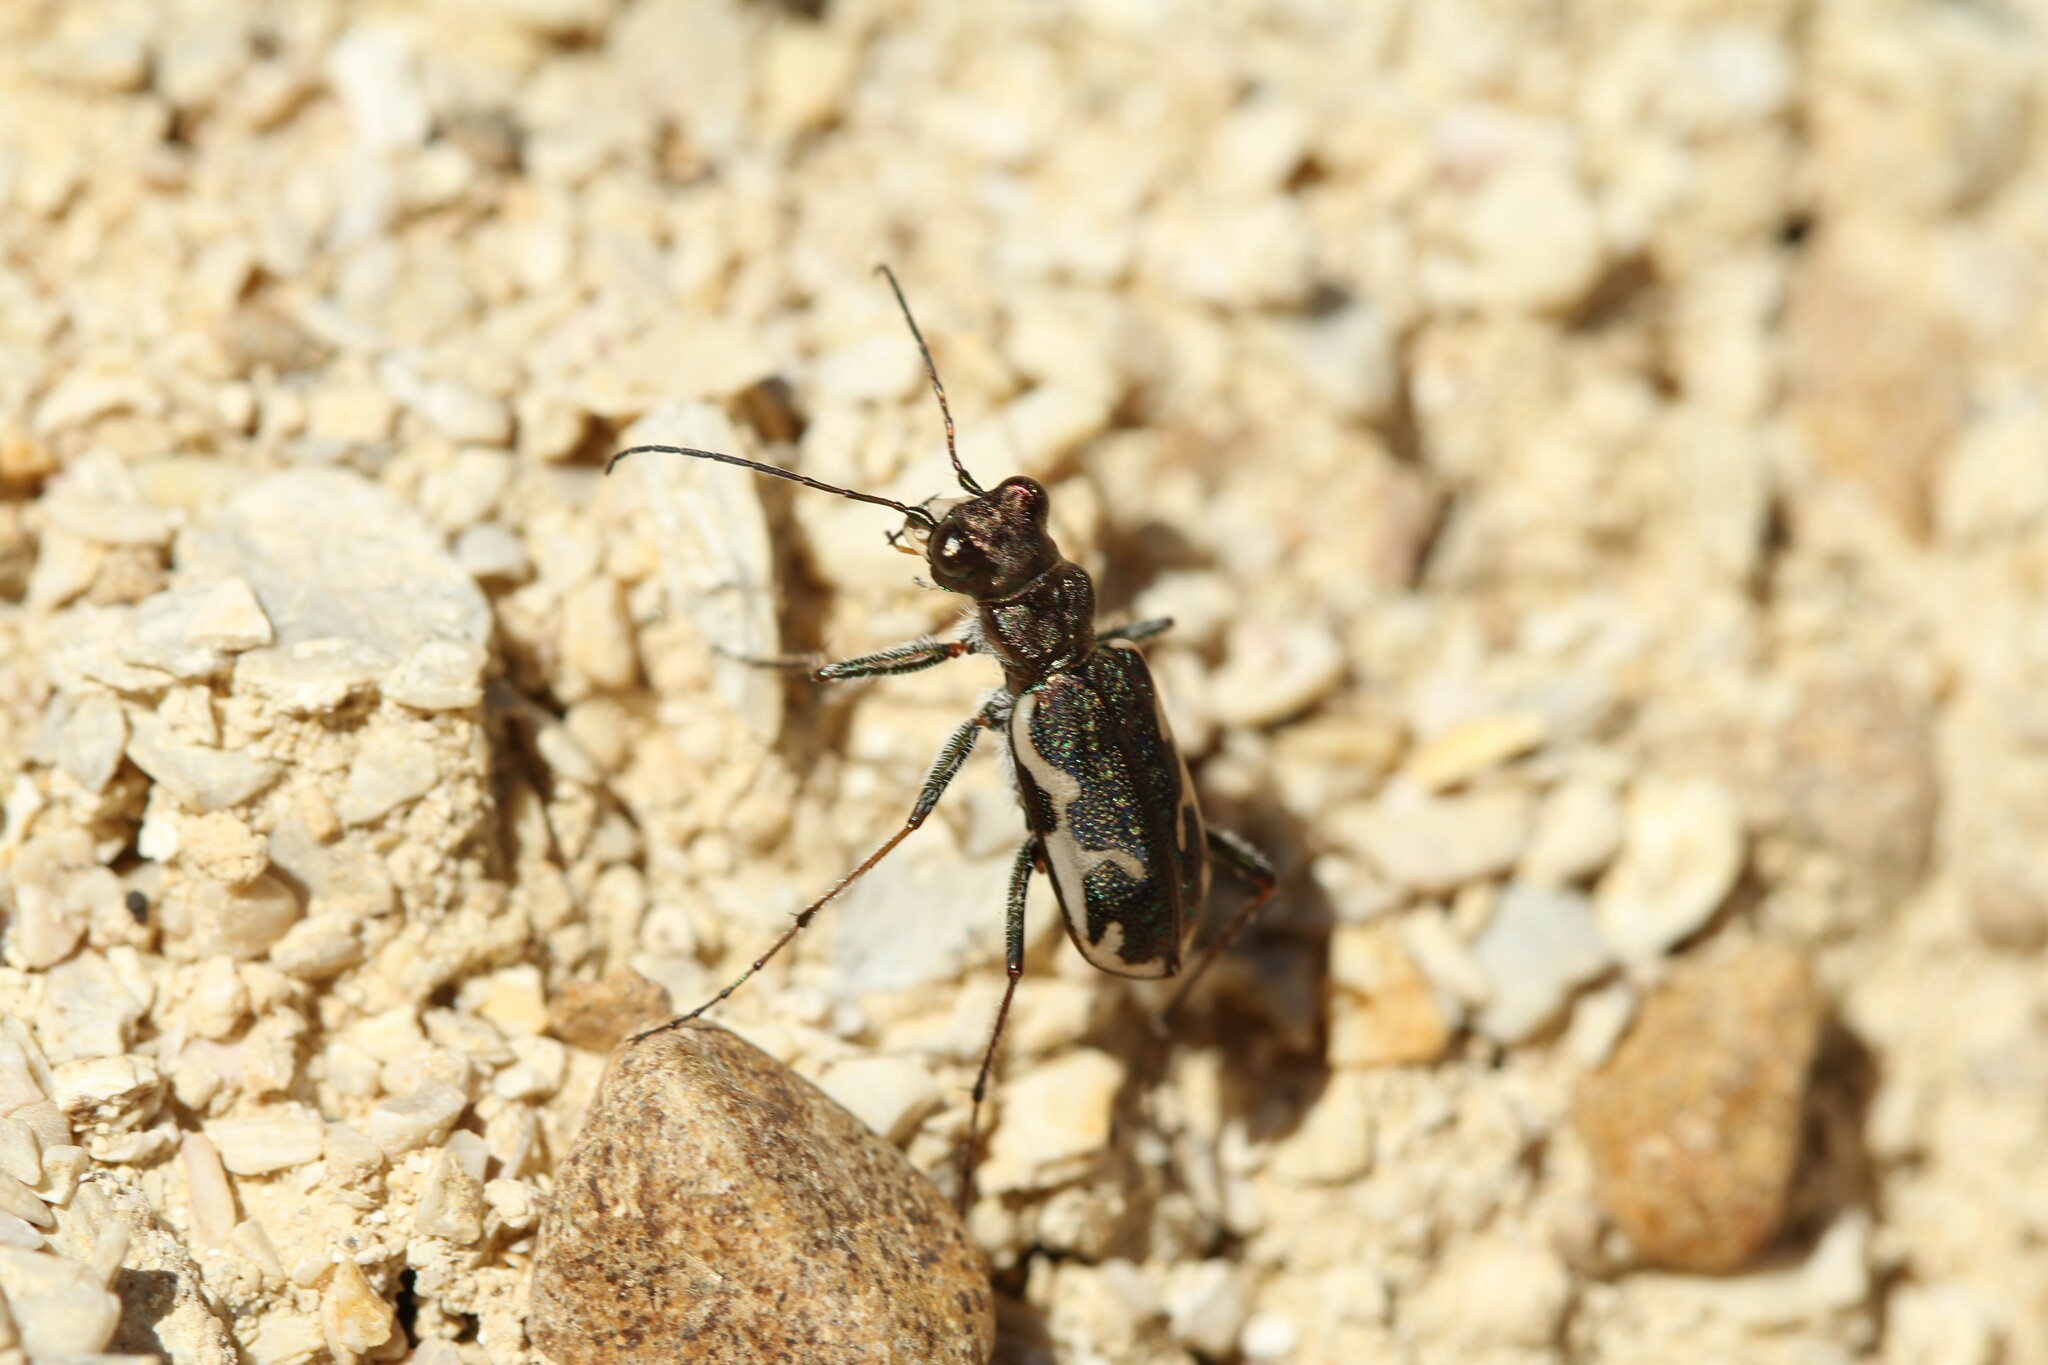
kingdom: Animalia
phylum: Arthropoda
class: Insecta
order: Coleoptera
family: Carabidae
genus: Neocicindela
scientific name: Neocicindela tuberculata
